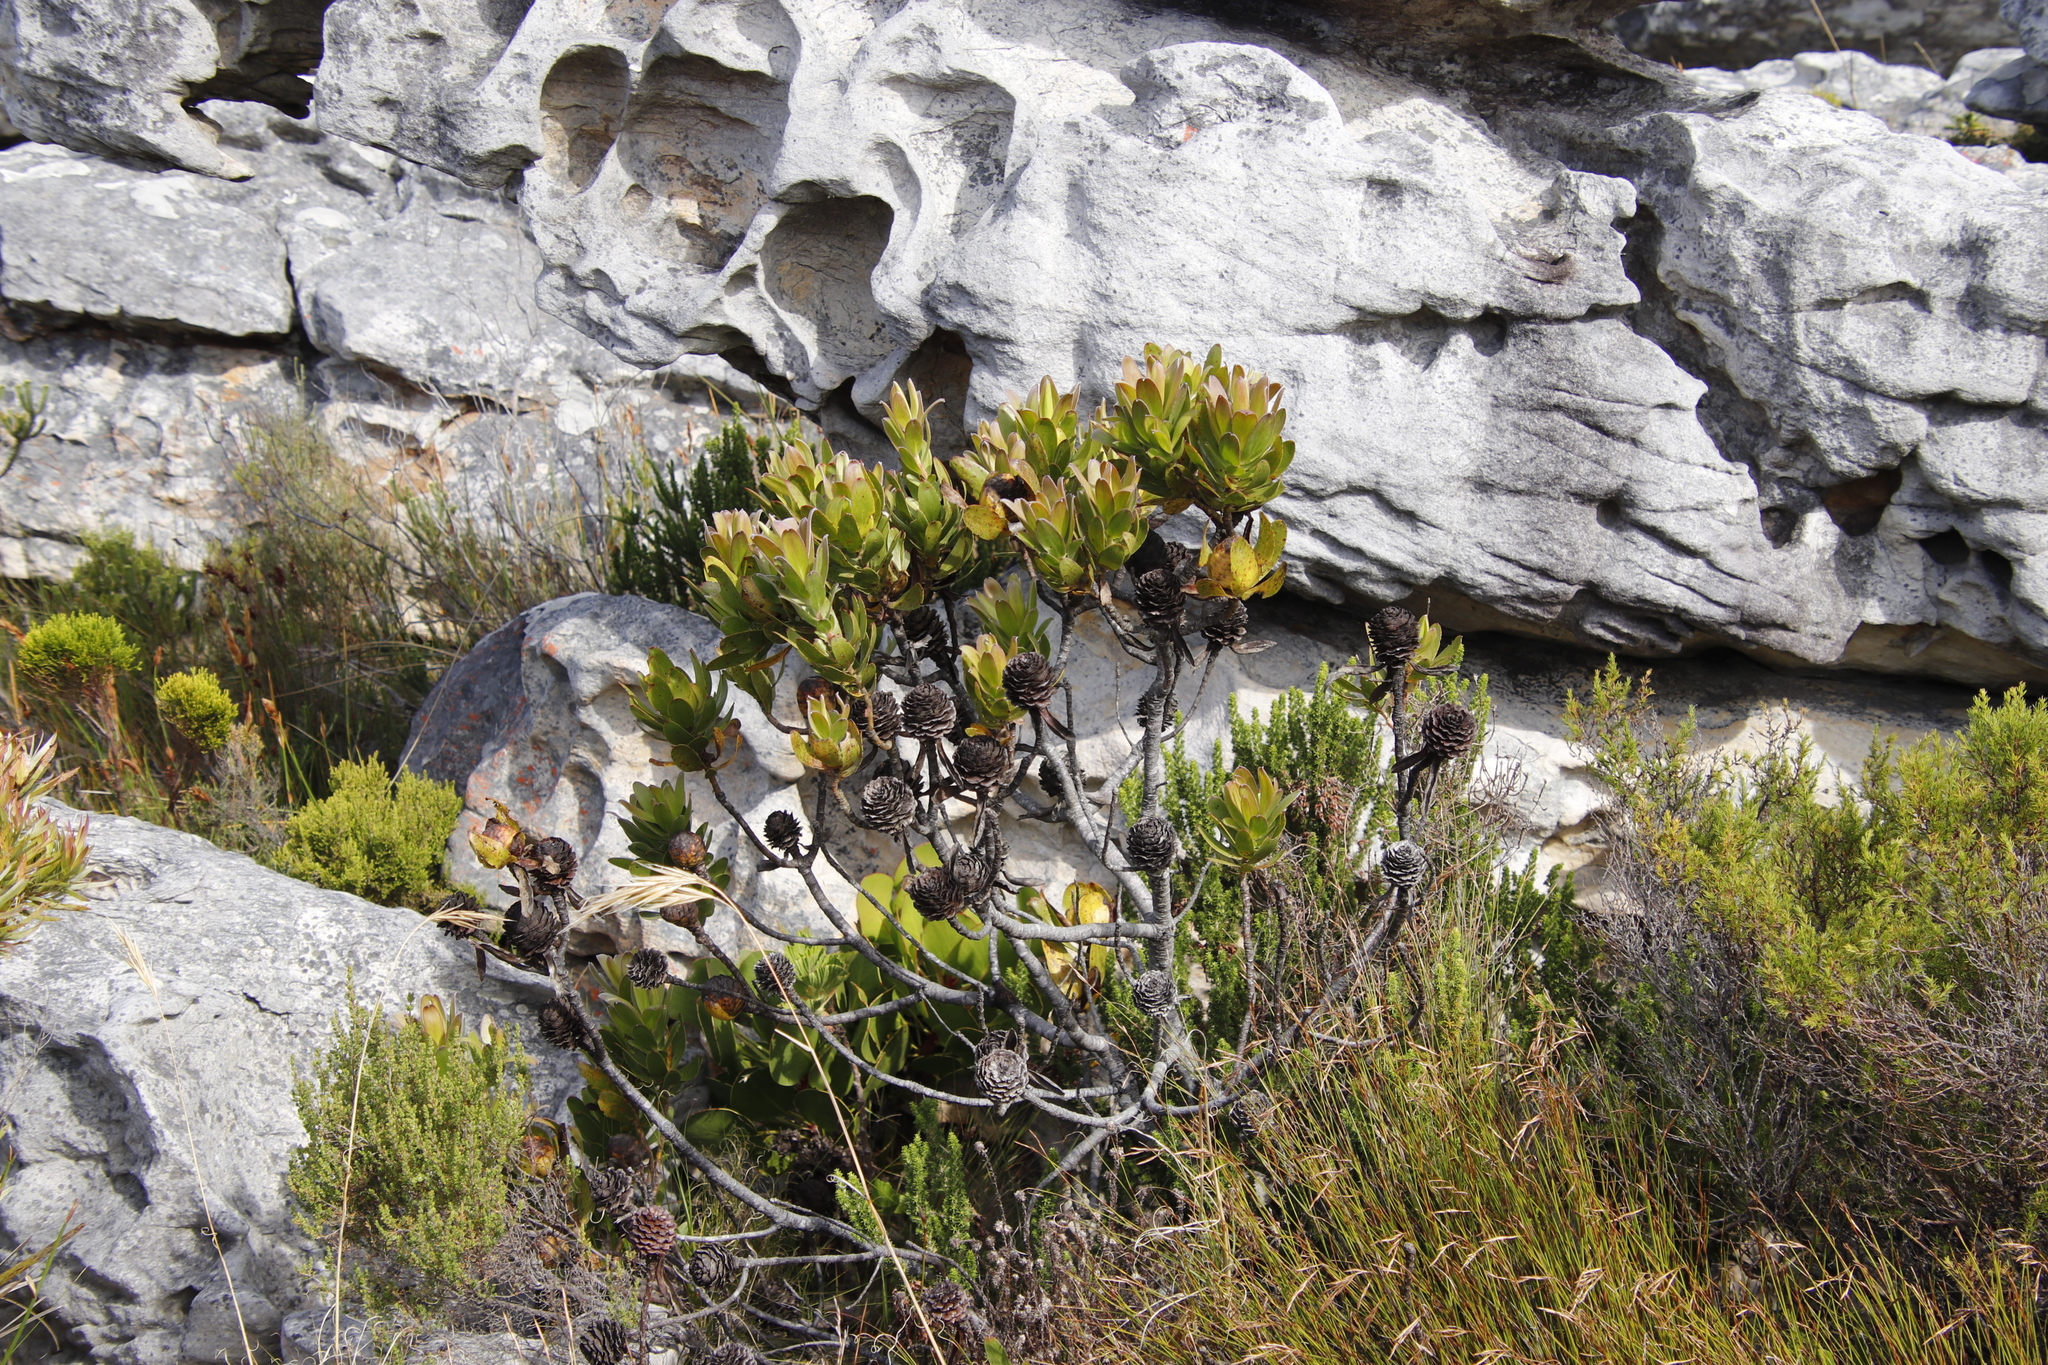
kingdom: Plantae
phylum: Tracheophyta
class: Magnoliopsida
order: Proteales
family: Proteaceae
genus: Leucadendron
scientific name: Leucadendron laureolum
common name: Golden sunshinebush
